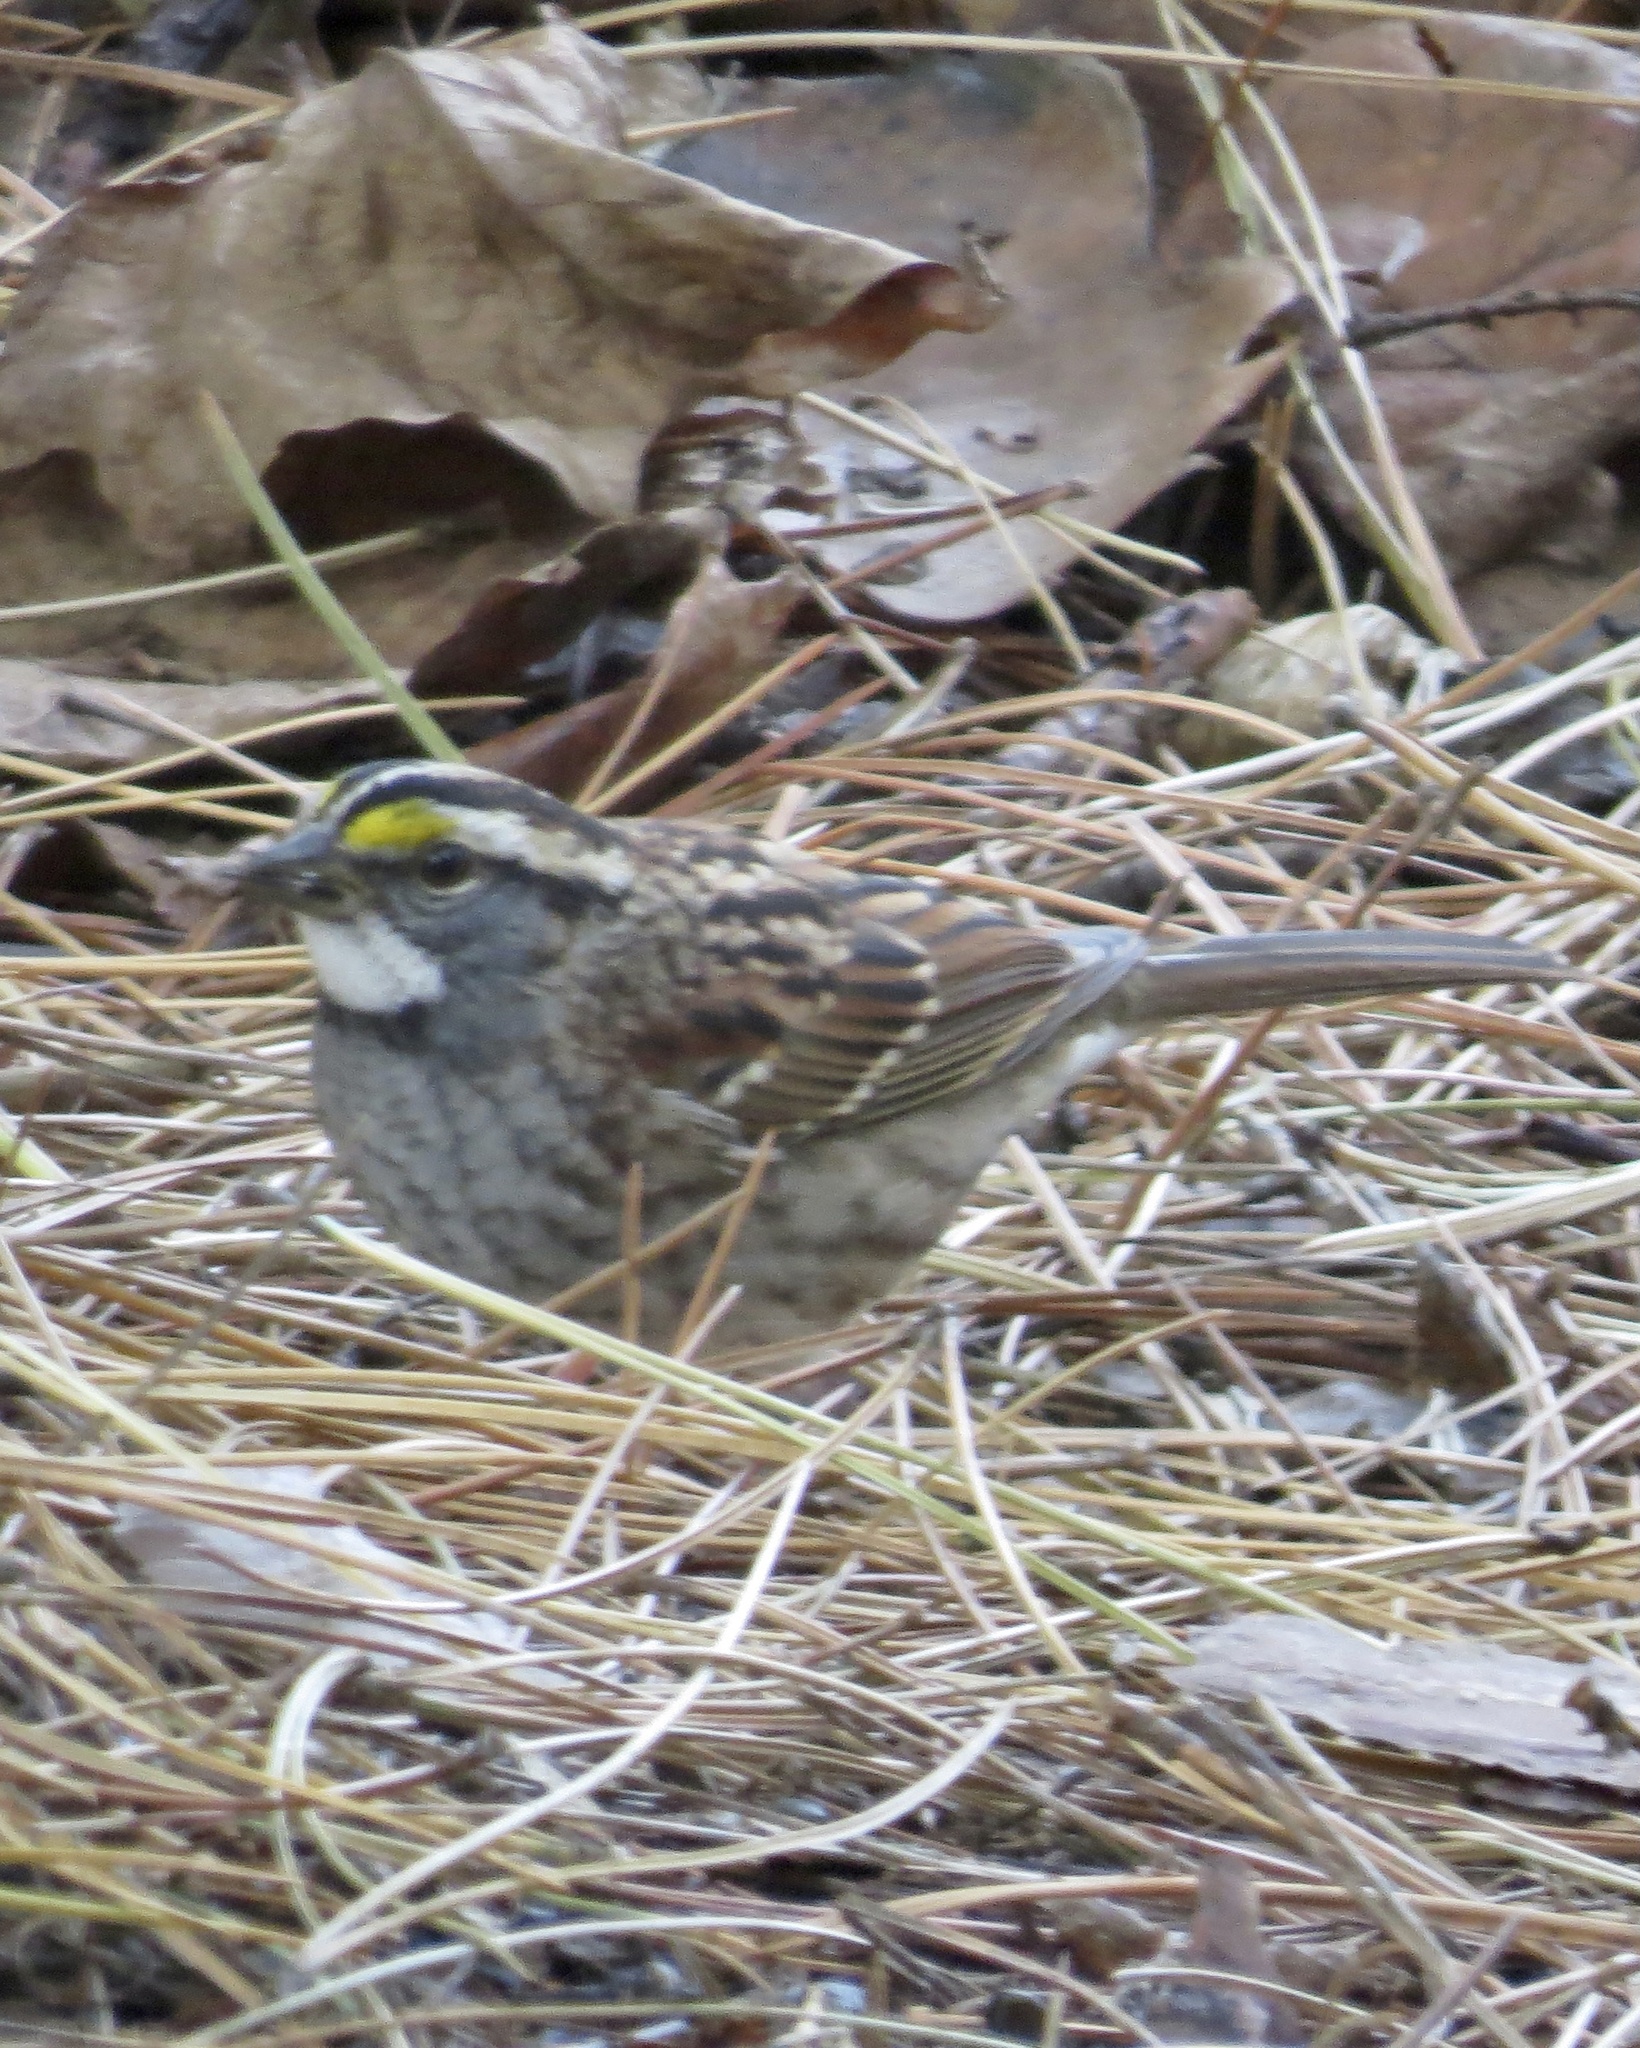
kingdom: Animalia
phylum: Chordata
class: Aves
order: Passeriformes
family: Passerellidae
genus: Zonotrichia
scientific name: Zonotrichia albicollis
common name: White-throated sparrow
